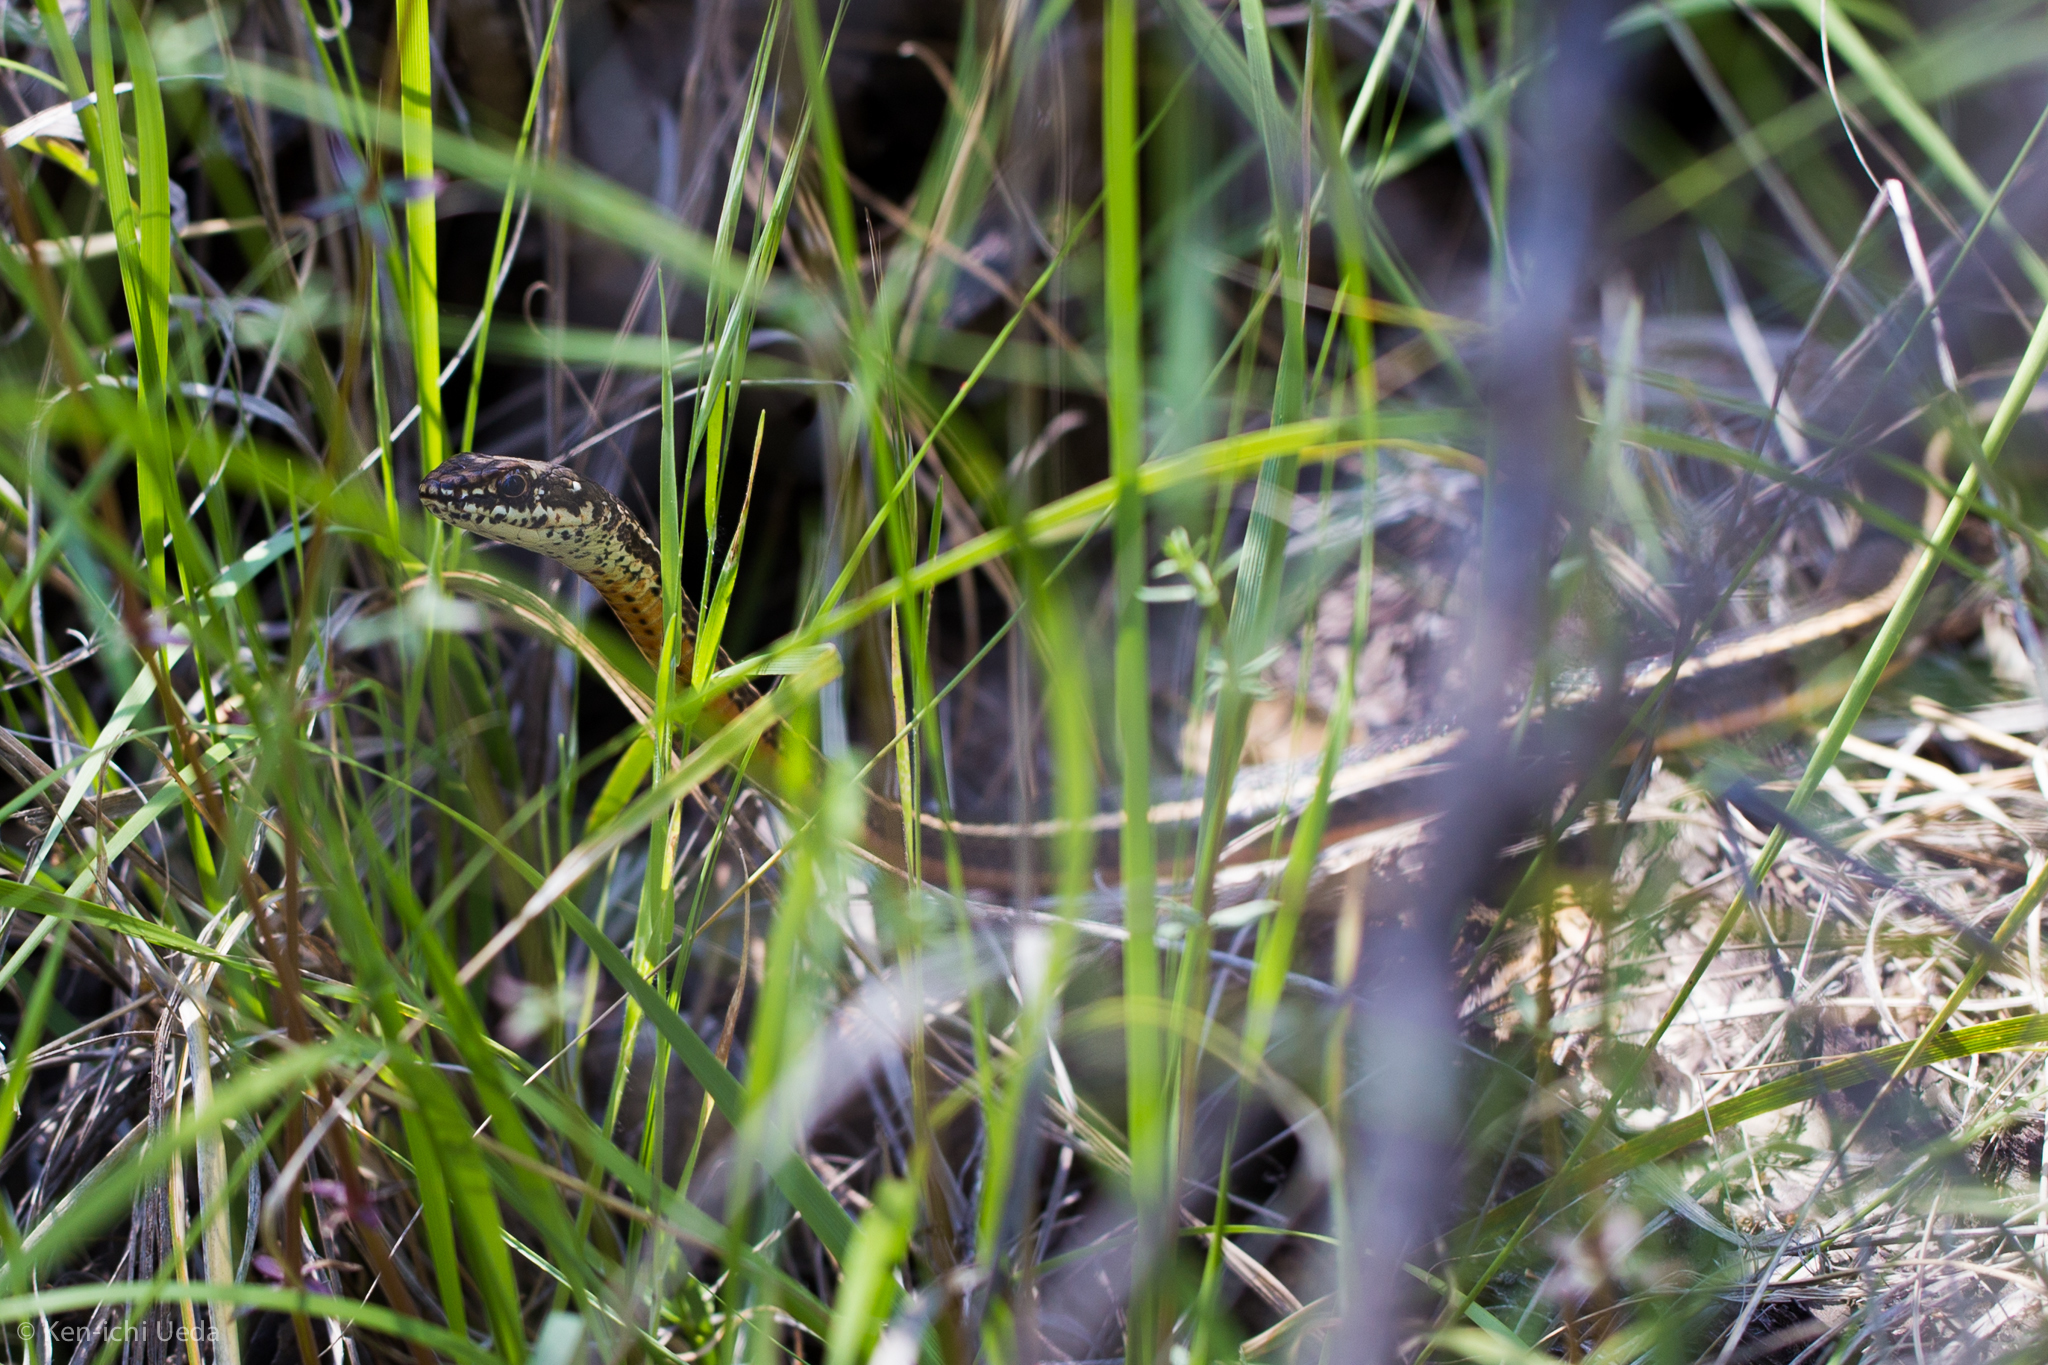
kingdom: Animalia
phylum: Chordata
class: Squamata
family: Colubridae
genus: Masticophis
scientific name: Masticophis lateralis
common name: Striped racer
